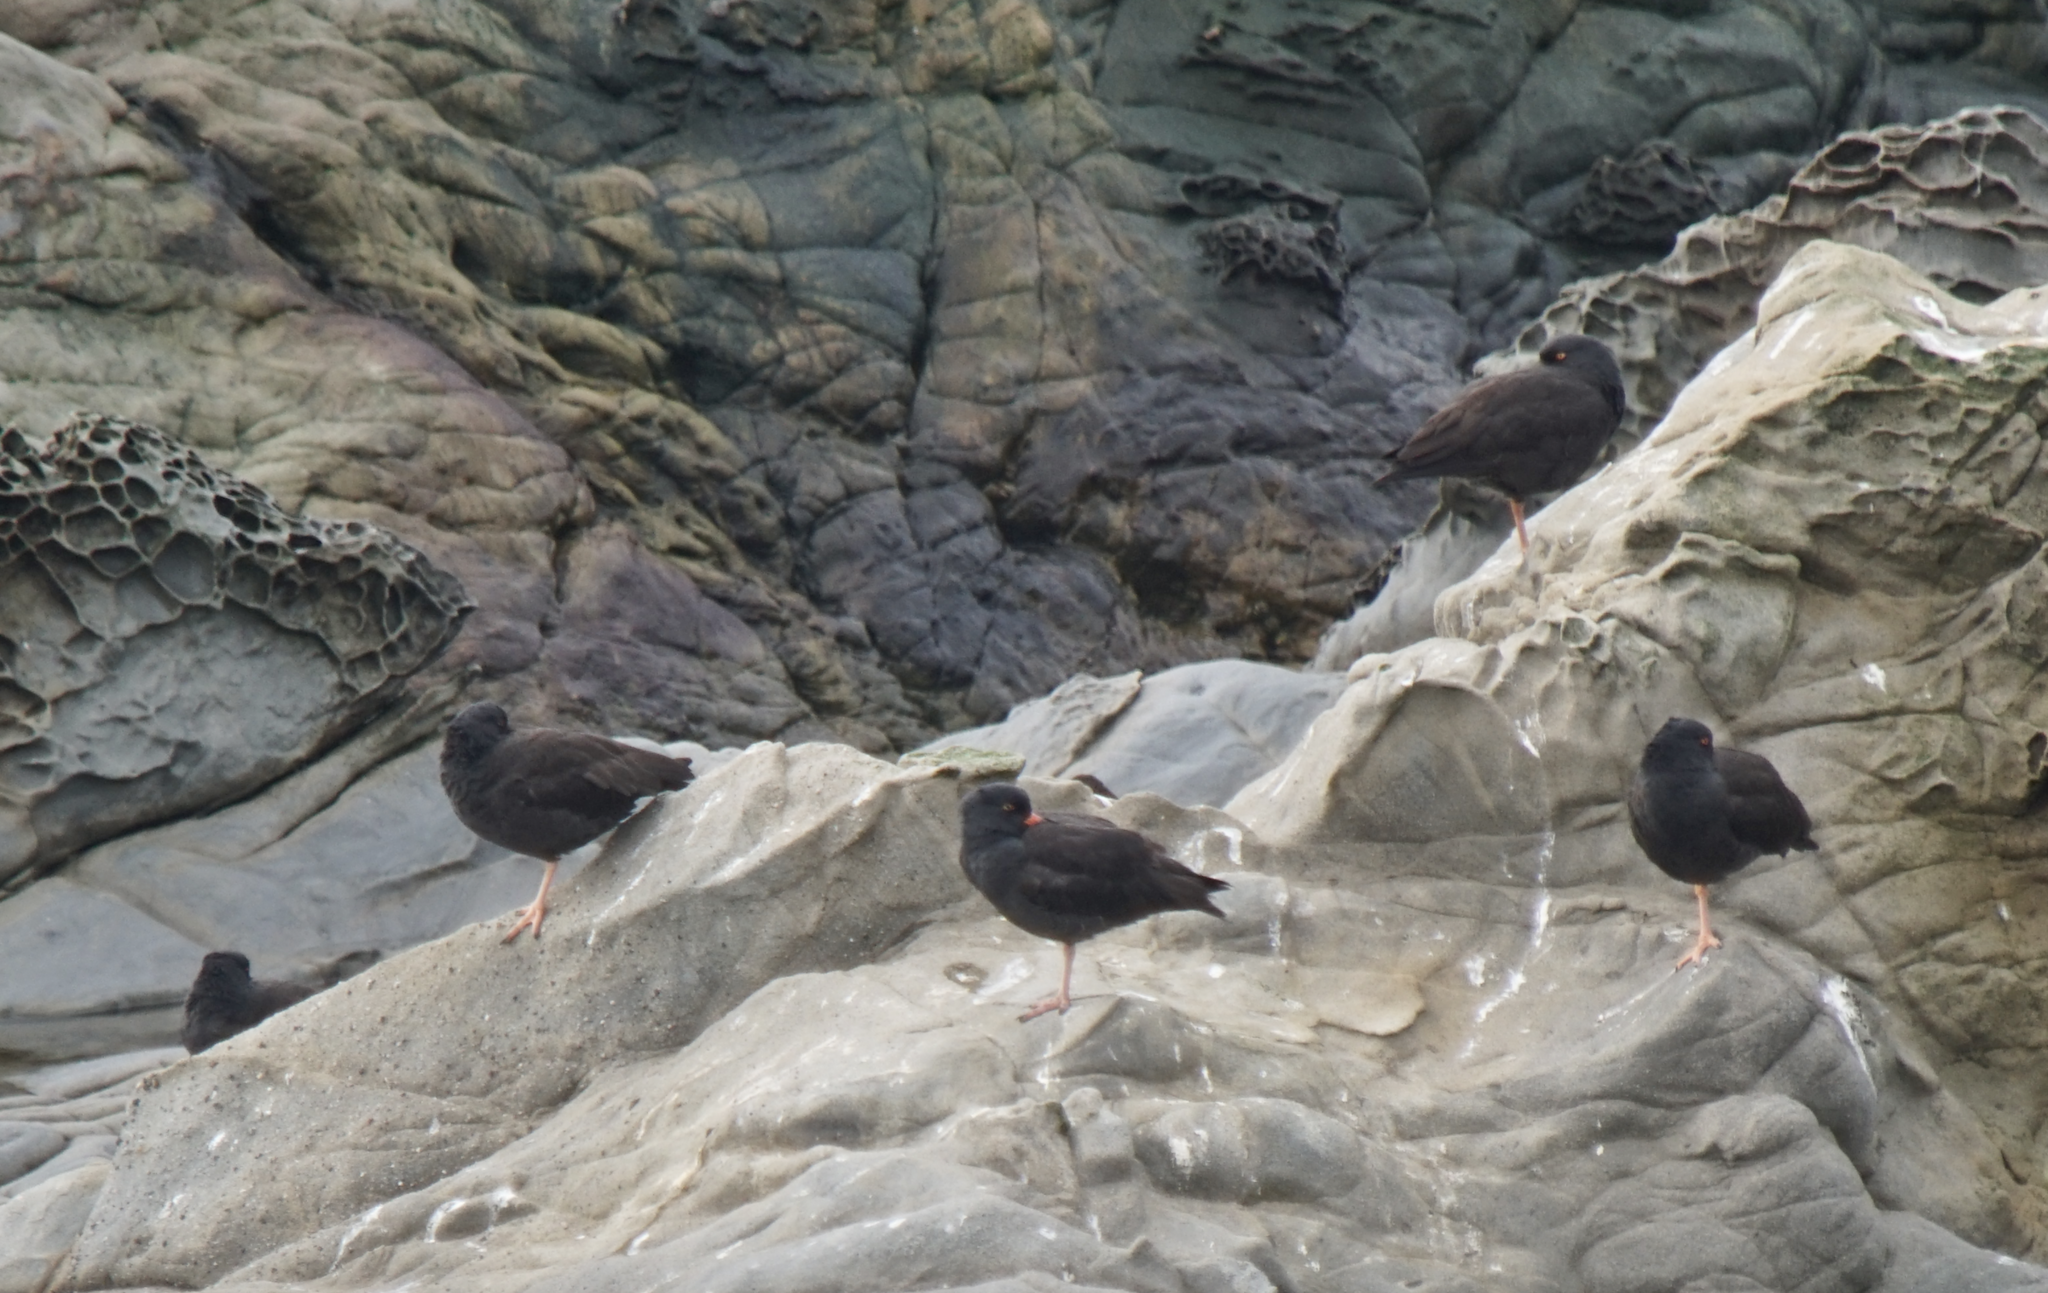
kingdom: Animalia
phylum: Chordata
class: Aves
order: Charadriiformes
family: Haematopodidae
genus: Haematopus
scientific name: Haematopus bachmani
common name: Black oystercatcher
